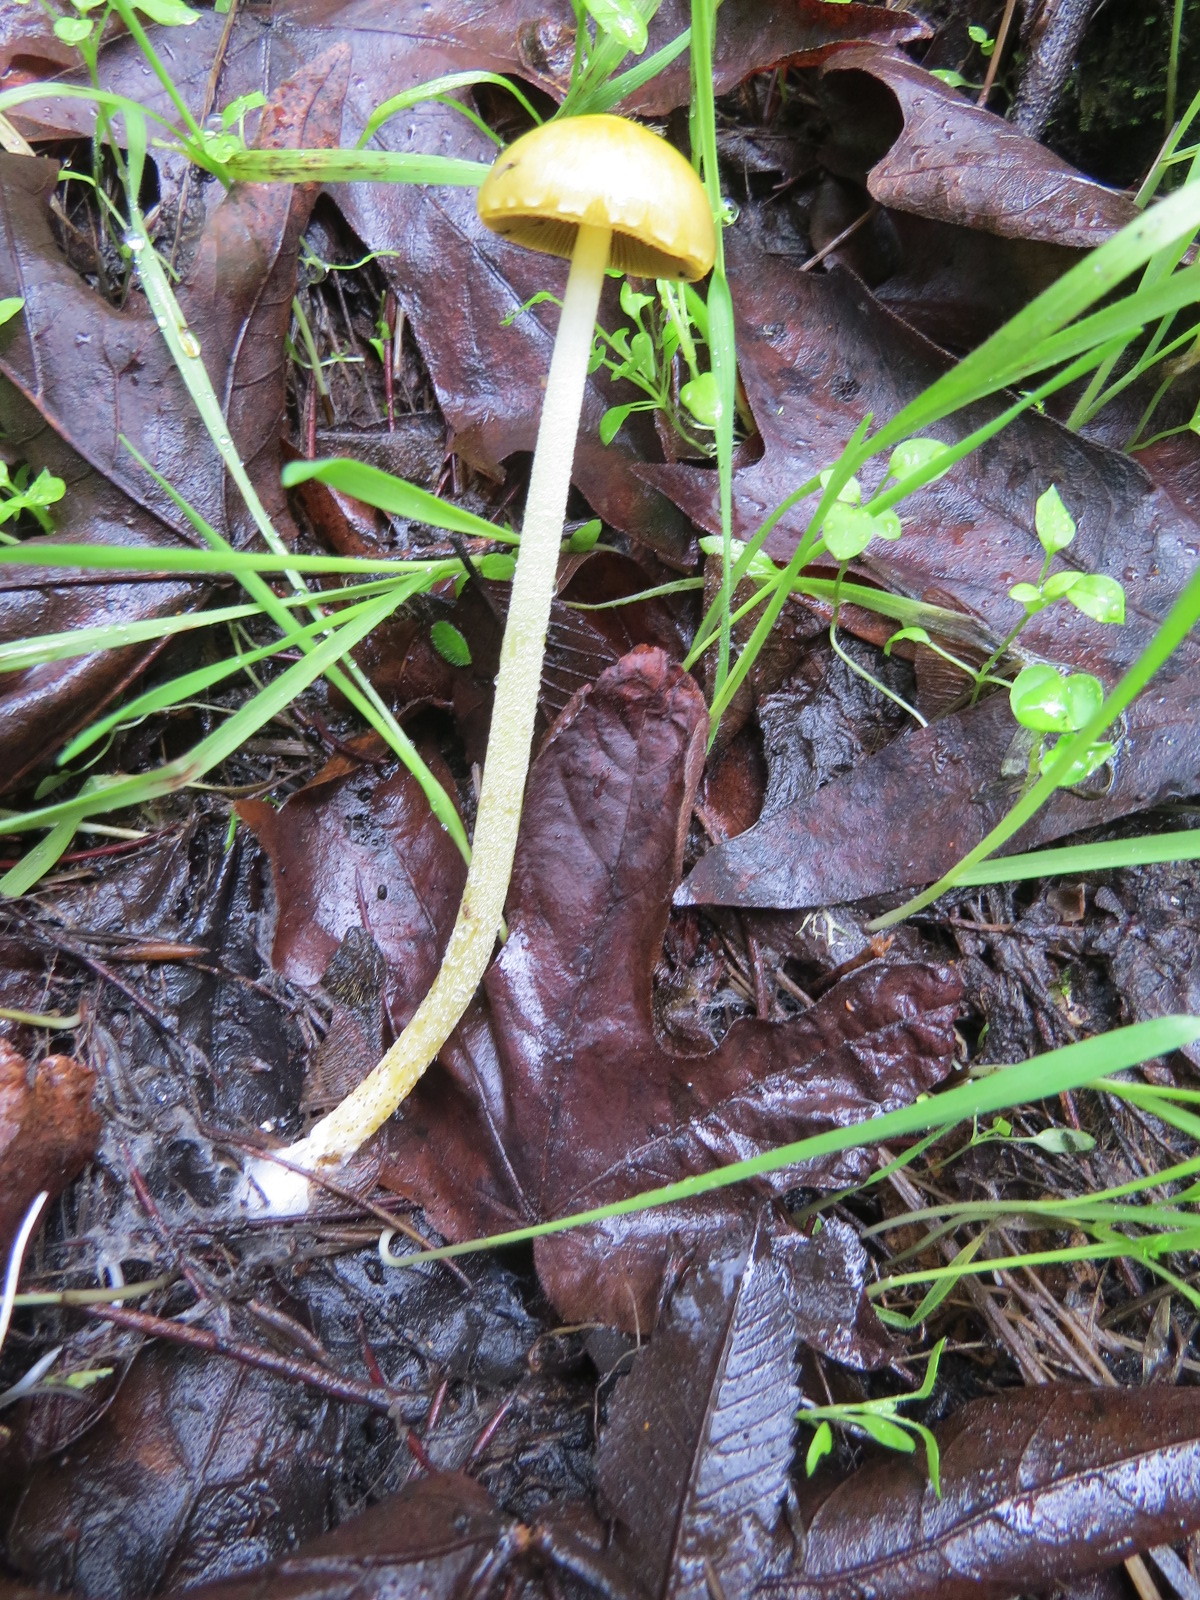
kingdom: Fungi
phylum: Basidiomycota
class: Agaricomycetes
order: Agaricales
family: Bolbitiaceae
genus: Bolbitius
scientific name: Bolbitius titubans
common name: Yellow fieldcap
